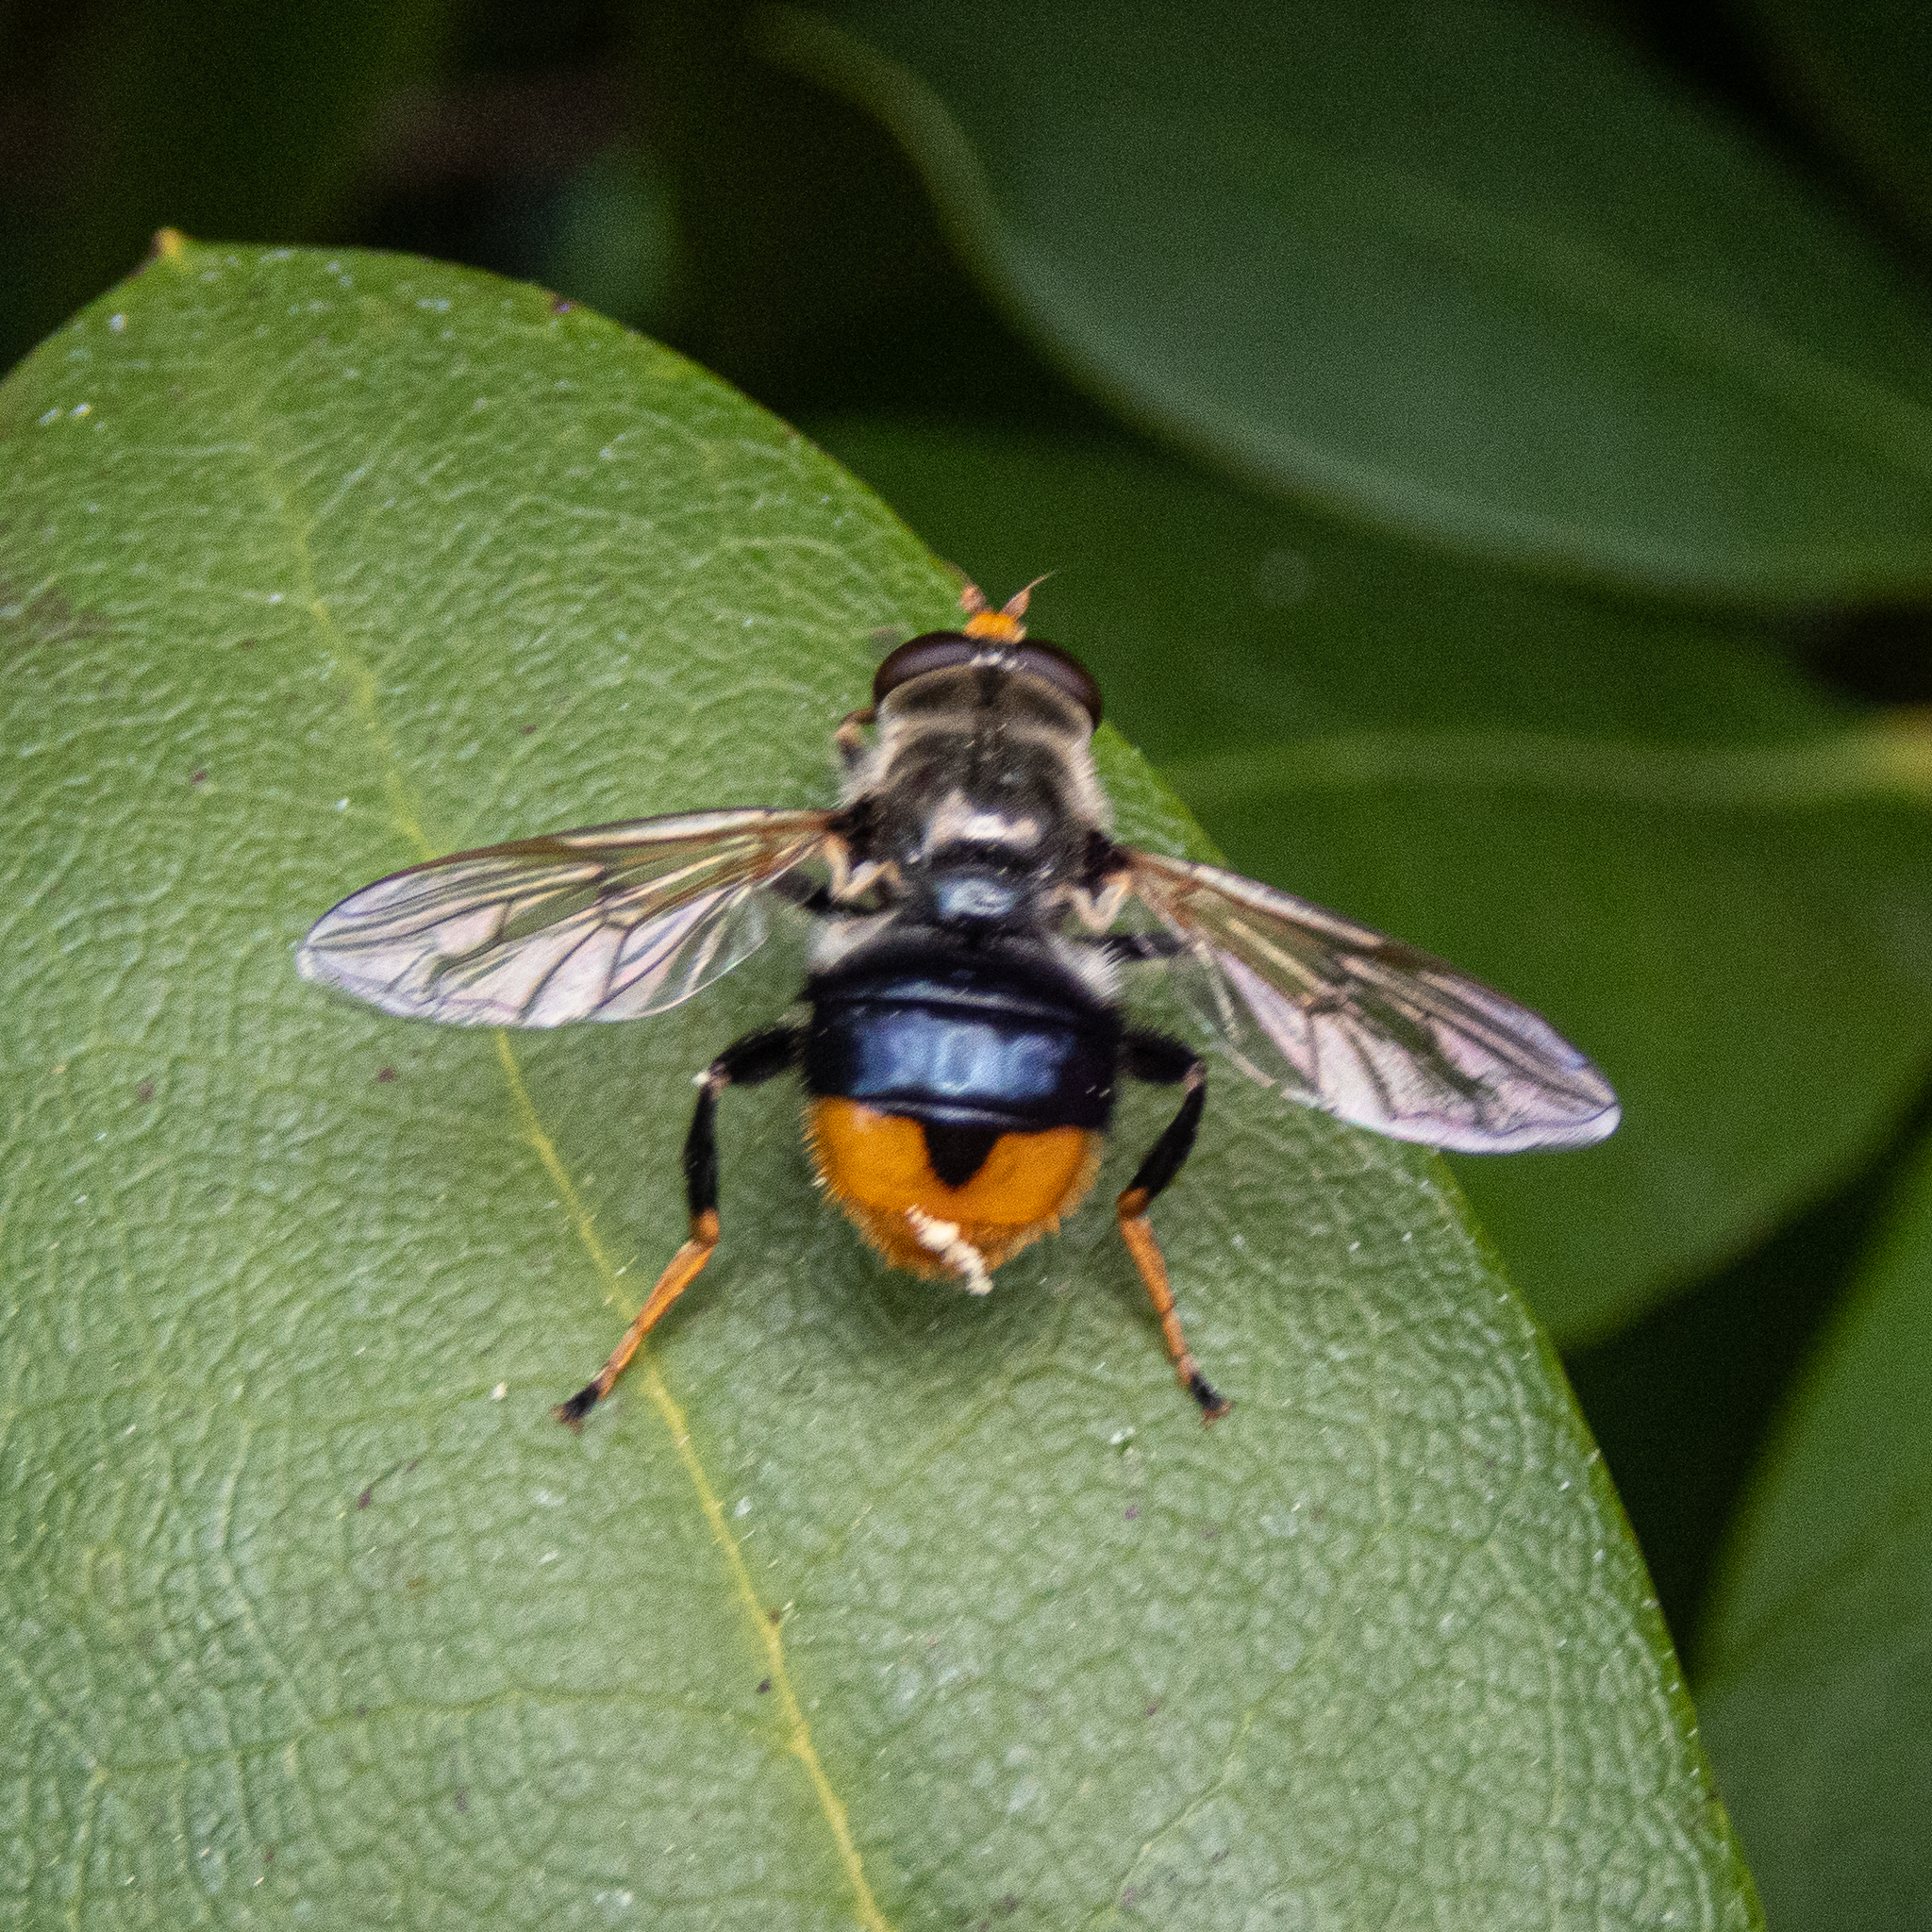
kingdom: Animalia
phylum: Arthropoda
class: Insecta
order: Diptera
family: Syrphidae
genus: Blera
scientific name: Blera analis
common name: Orange-tailed wood fly
